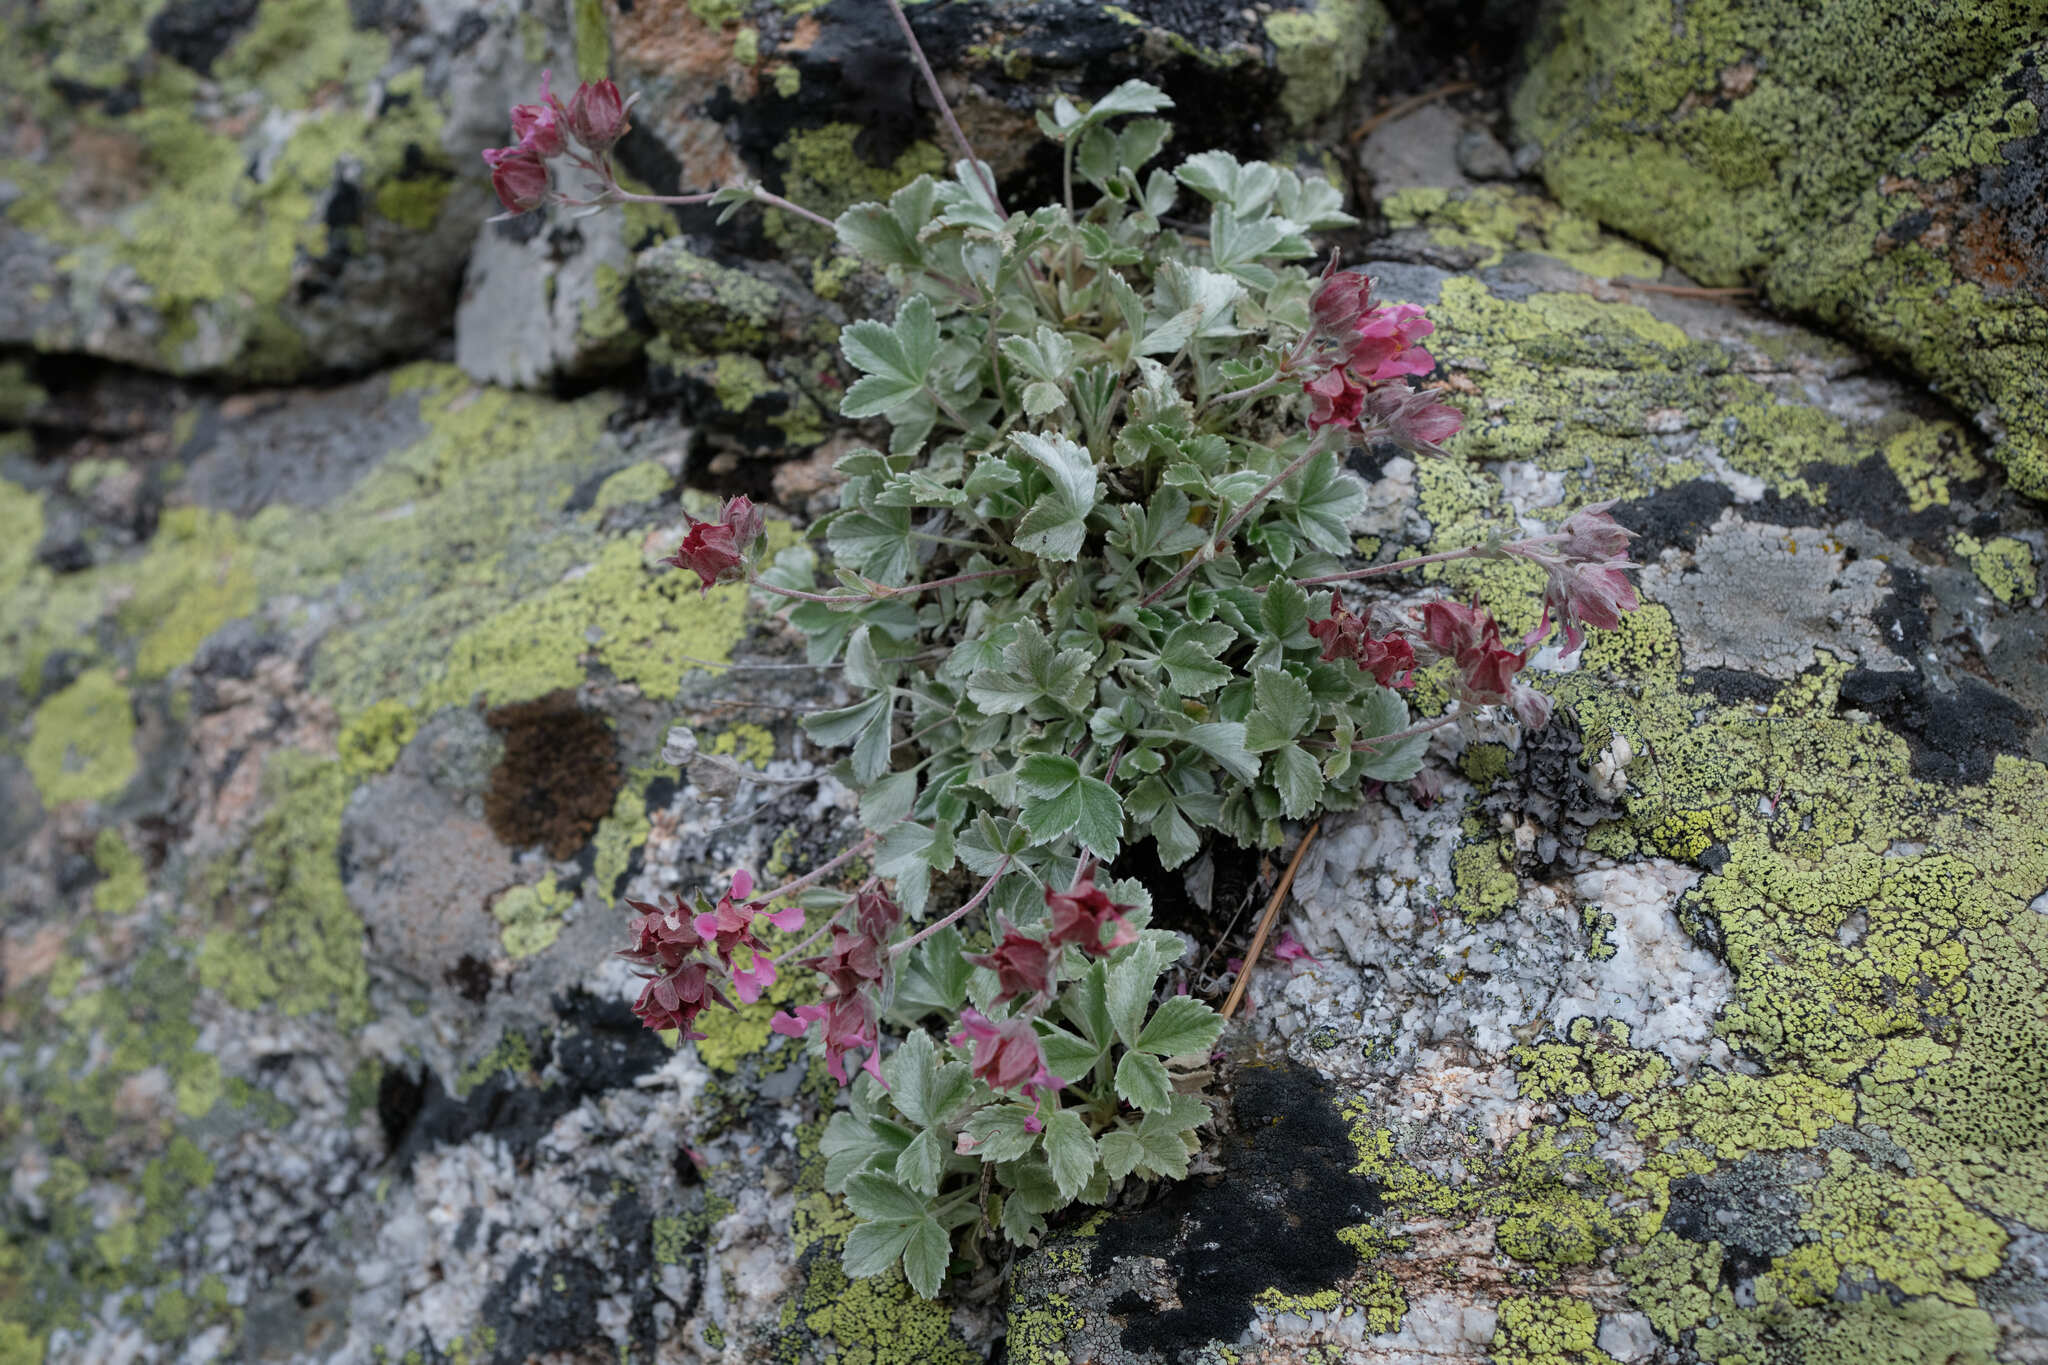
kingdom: Plantae
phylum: Tracheophyta
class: Magnoliopsida
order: Rosales
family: Rosaceae
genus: Potentilla
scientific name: Potentilla divina
